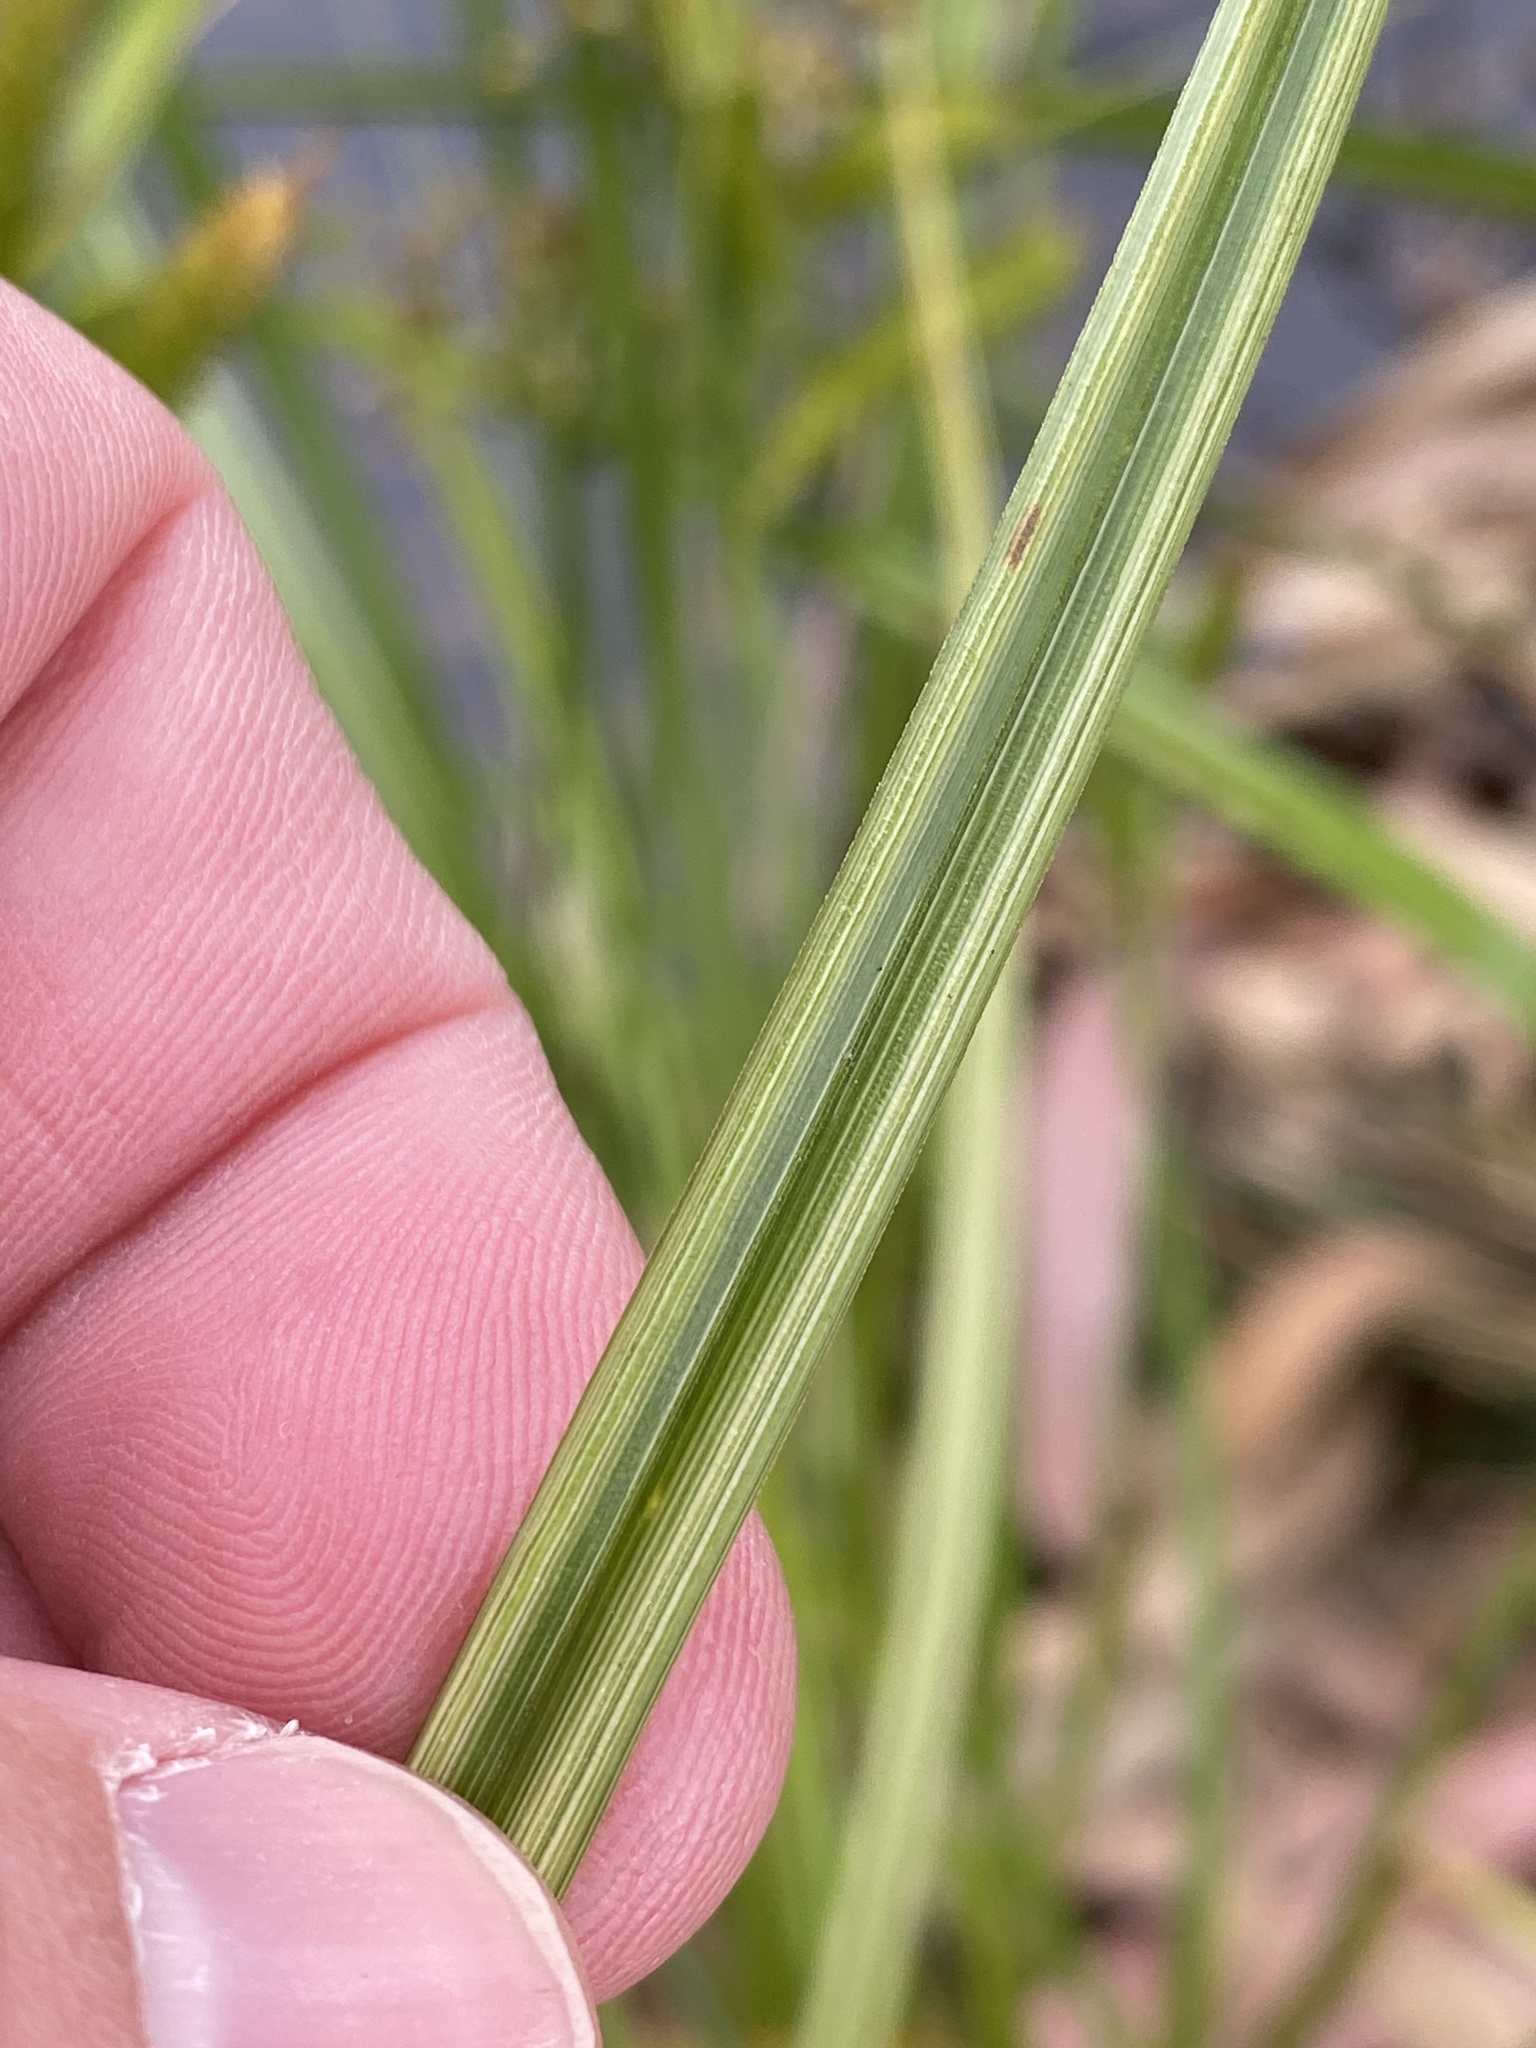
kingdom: Plantae
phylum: Tracheophyta
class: Liliopsida
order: Poales
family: Cyperaceae
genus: Carex
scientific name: Carex maorica
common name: Maori sedge
